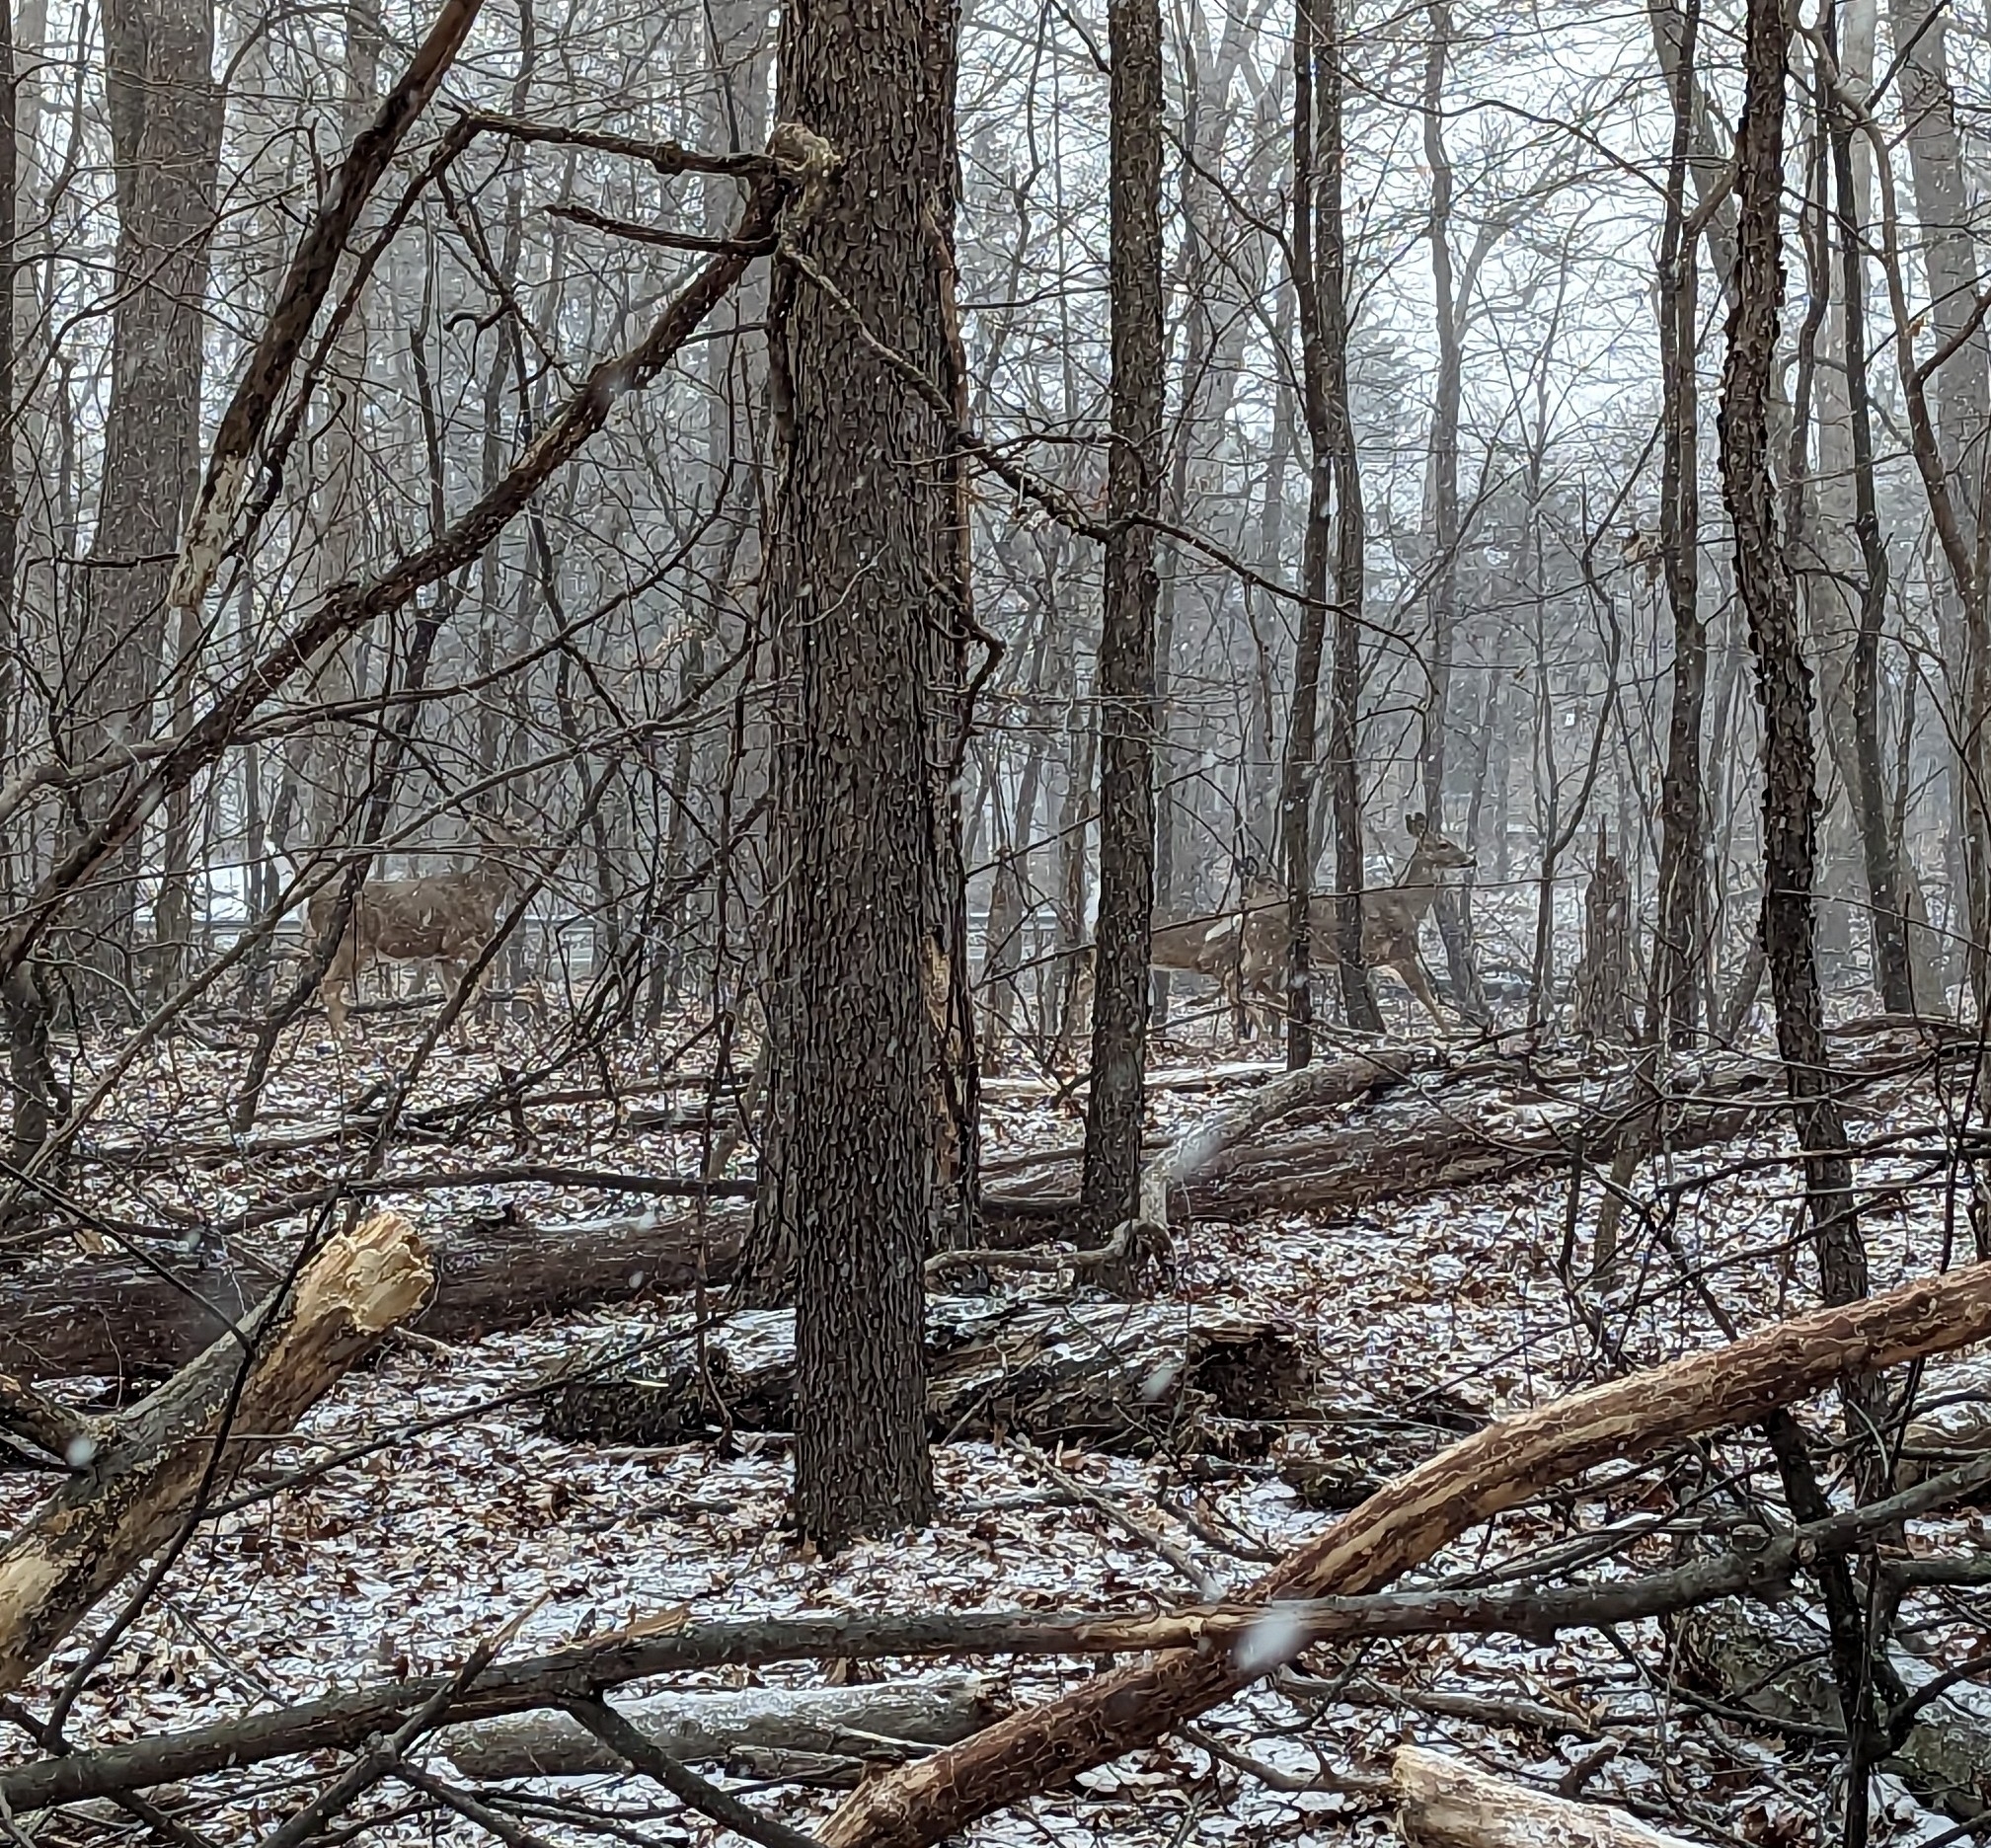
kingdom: Animalia
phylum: Chordata
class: Mammalia
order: Artiodactyla
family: Cervidae
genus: Odocoileus
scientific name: Odocoileus virginianus
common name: White-tailed deer
